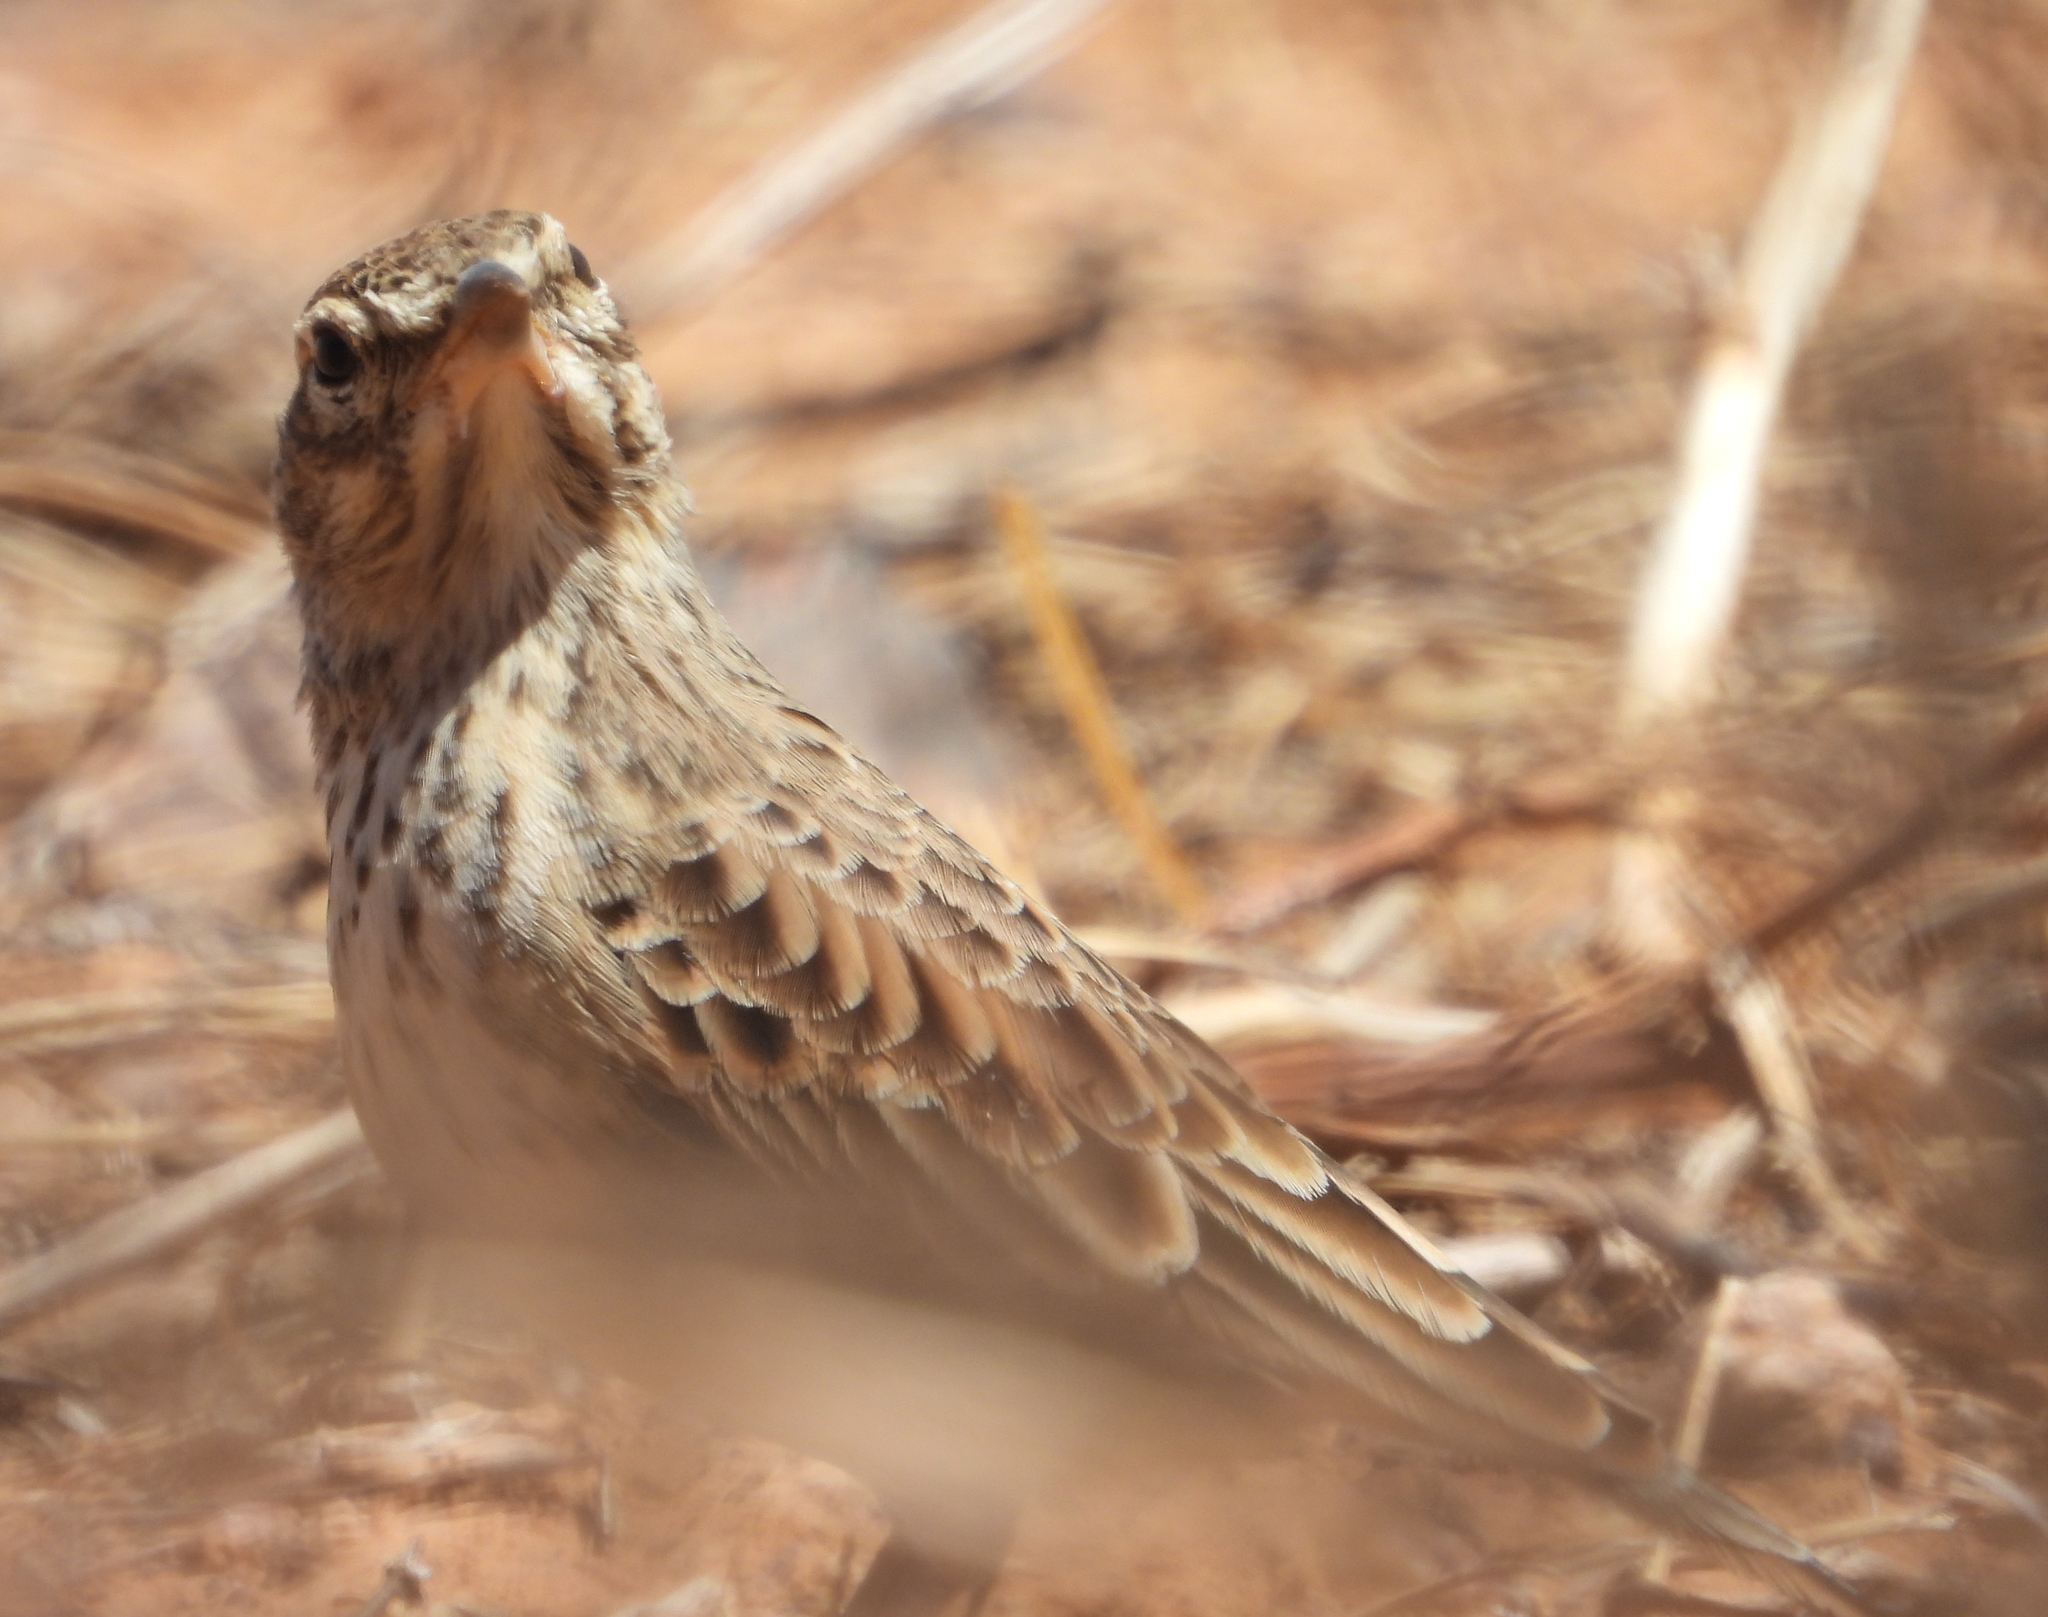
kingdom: Animalia
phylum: Chordata
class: Aves
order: Passeriformes
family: Alaudidae
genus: Galerida
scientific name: Galerida magnirostris
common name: Large-billed lark
